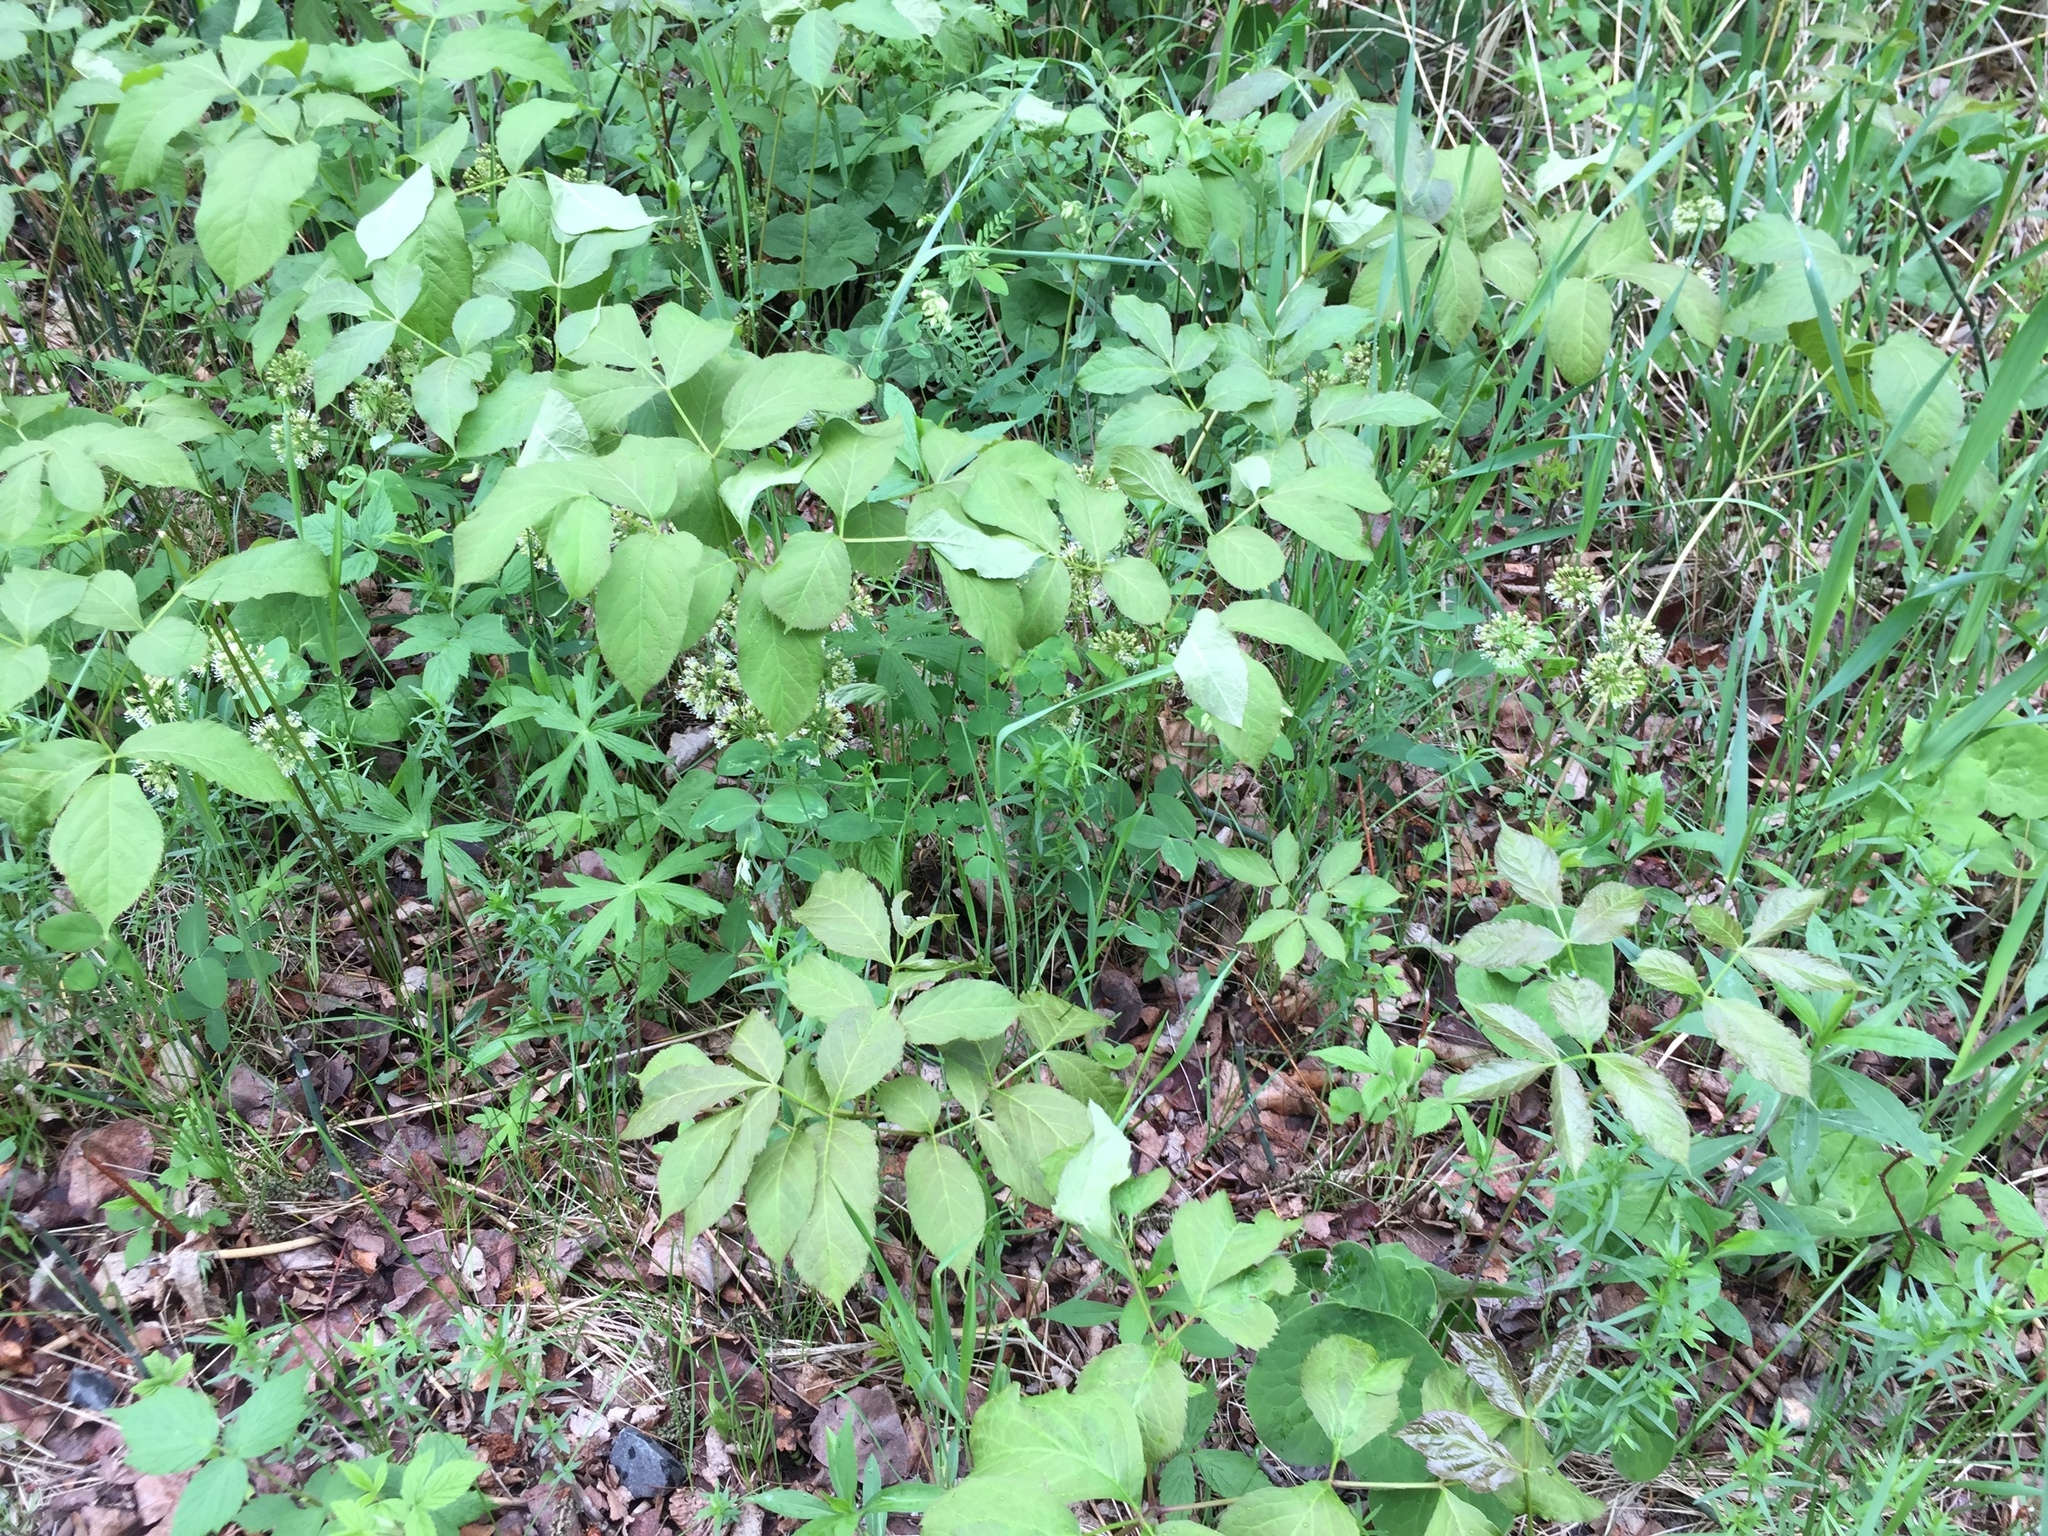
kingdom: Plantae
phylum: Tracheophyta
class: Magnoliopsida
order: Apiales
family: Araliaceae
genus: Aralia
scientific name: Aralia nudicaulis
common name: Wild sarsaparilla
